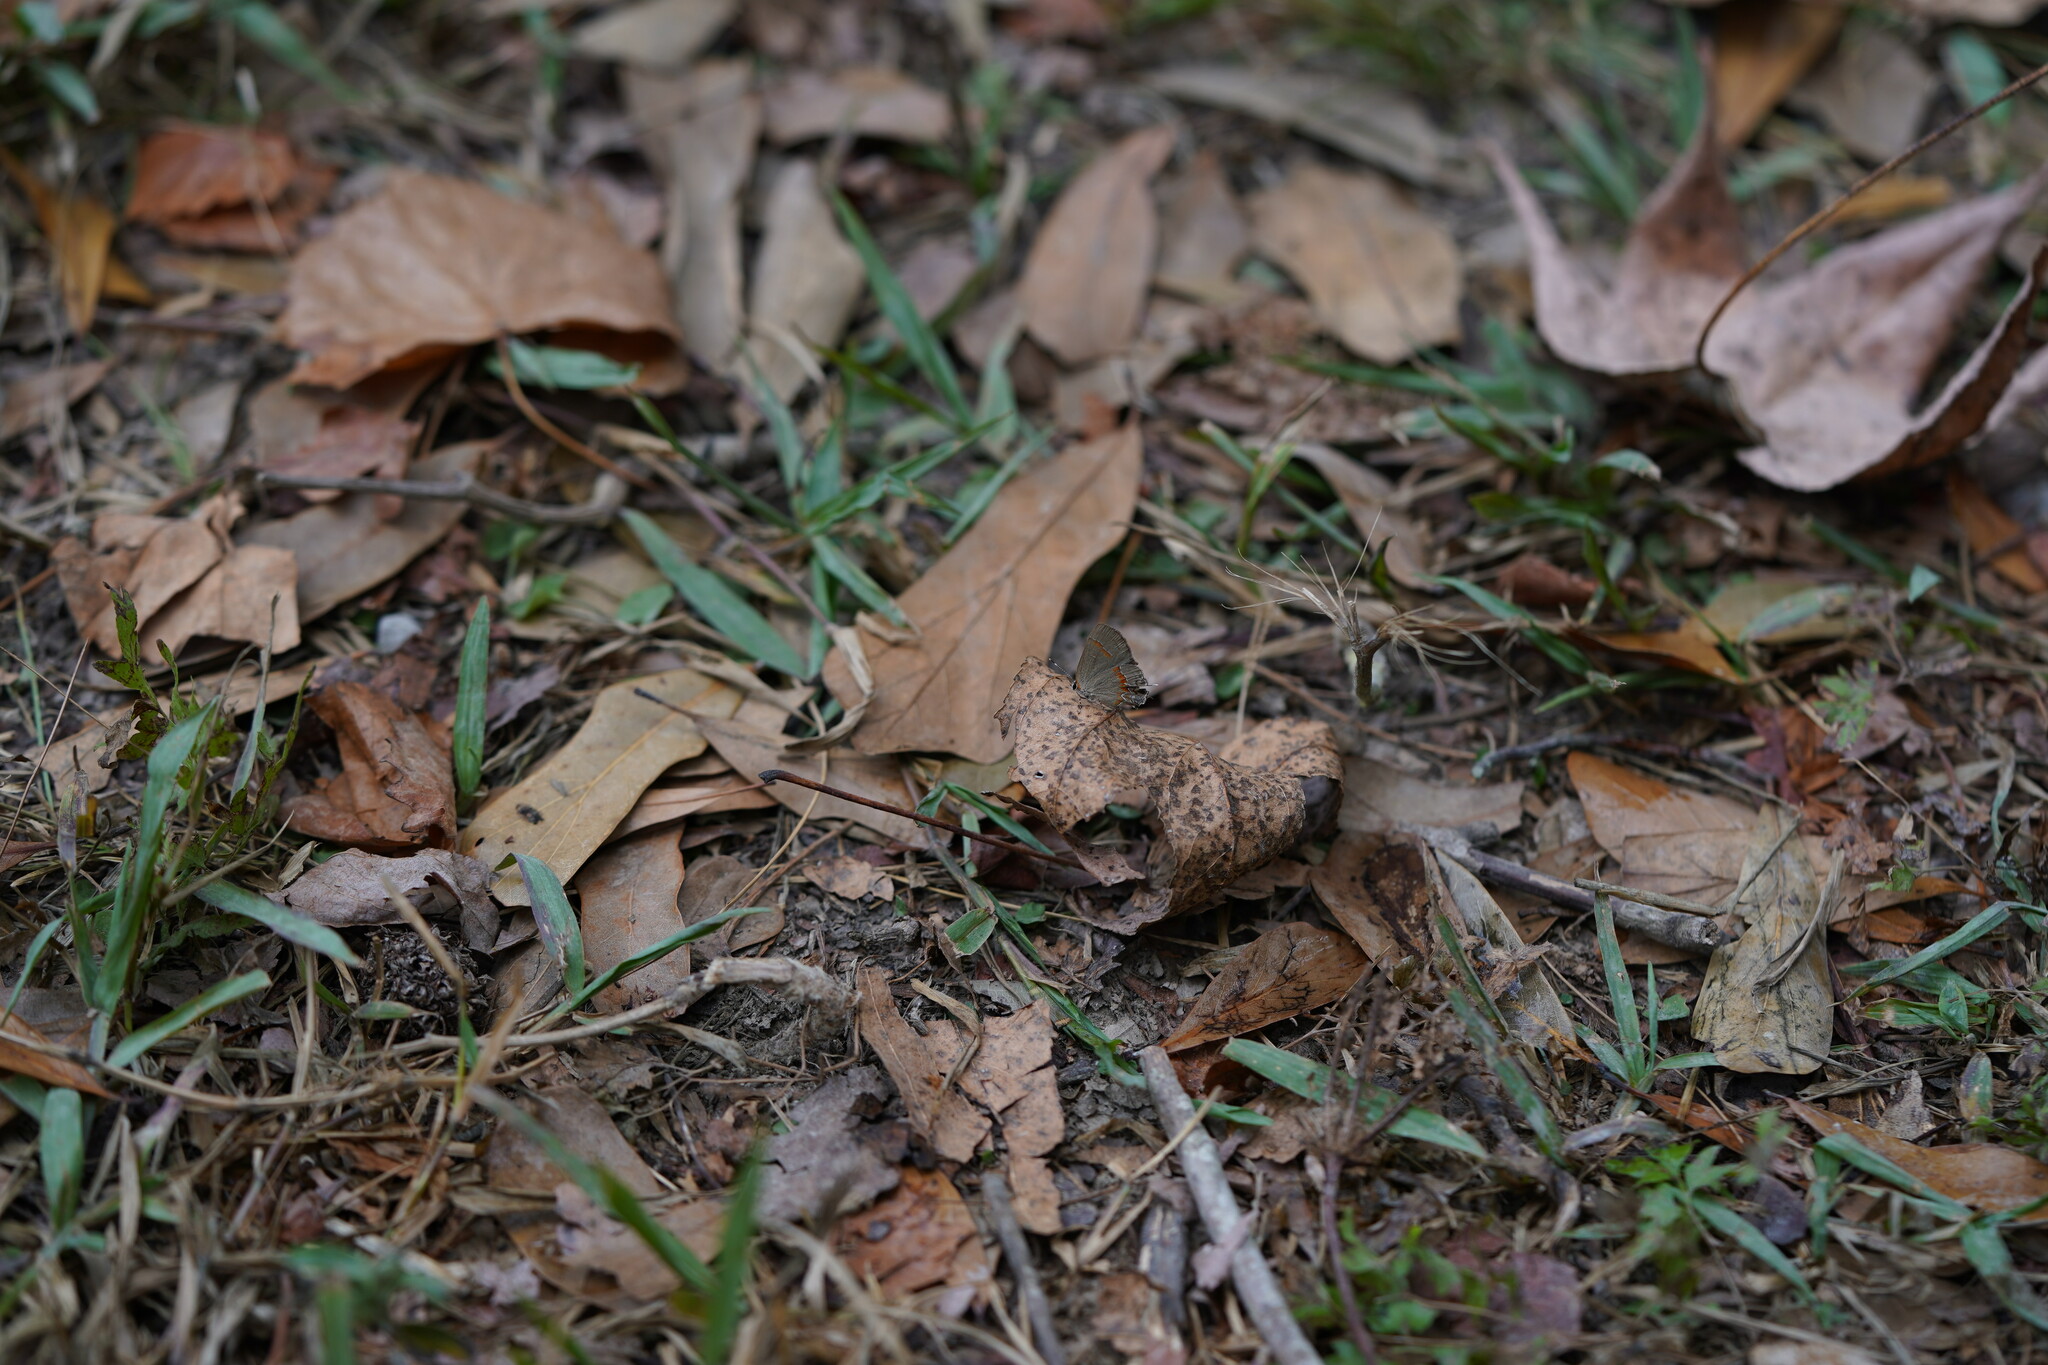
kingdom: Animalia
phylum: Arthropoda
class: Insecta
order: Lepidoptera
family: Lycaenidae
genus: Calycopis
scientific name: Calycopis cecrops
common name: Red-banded hairstreak
